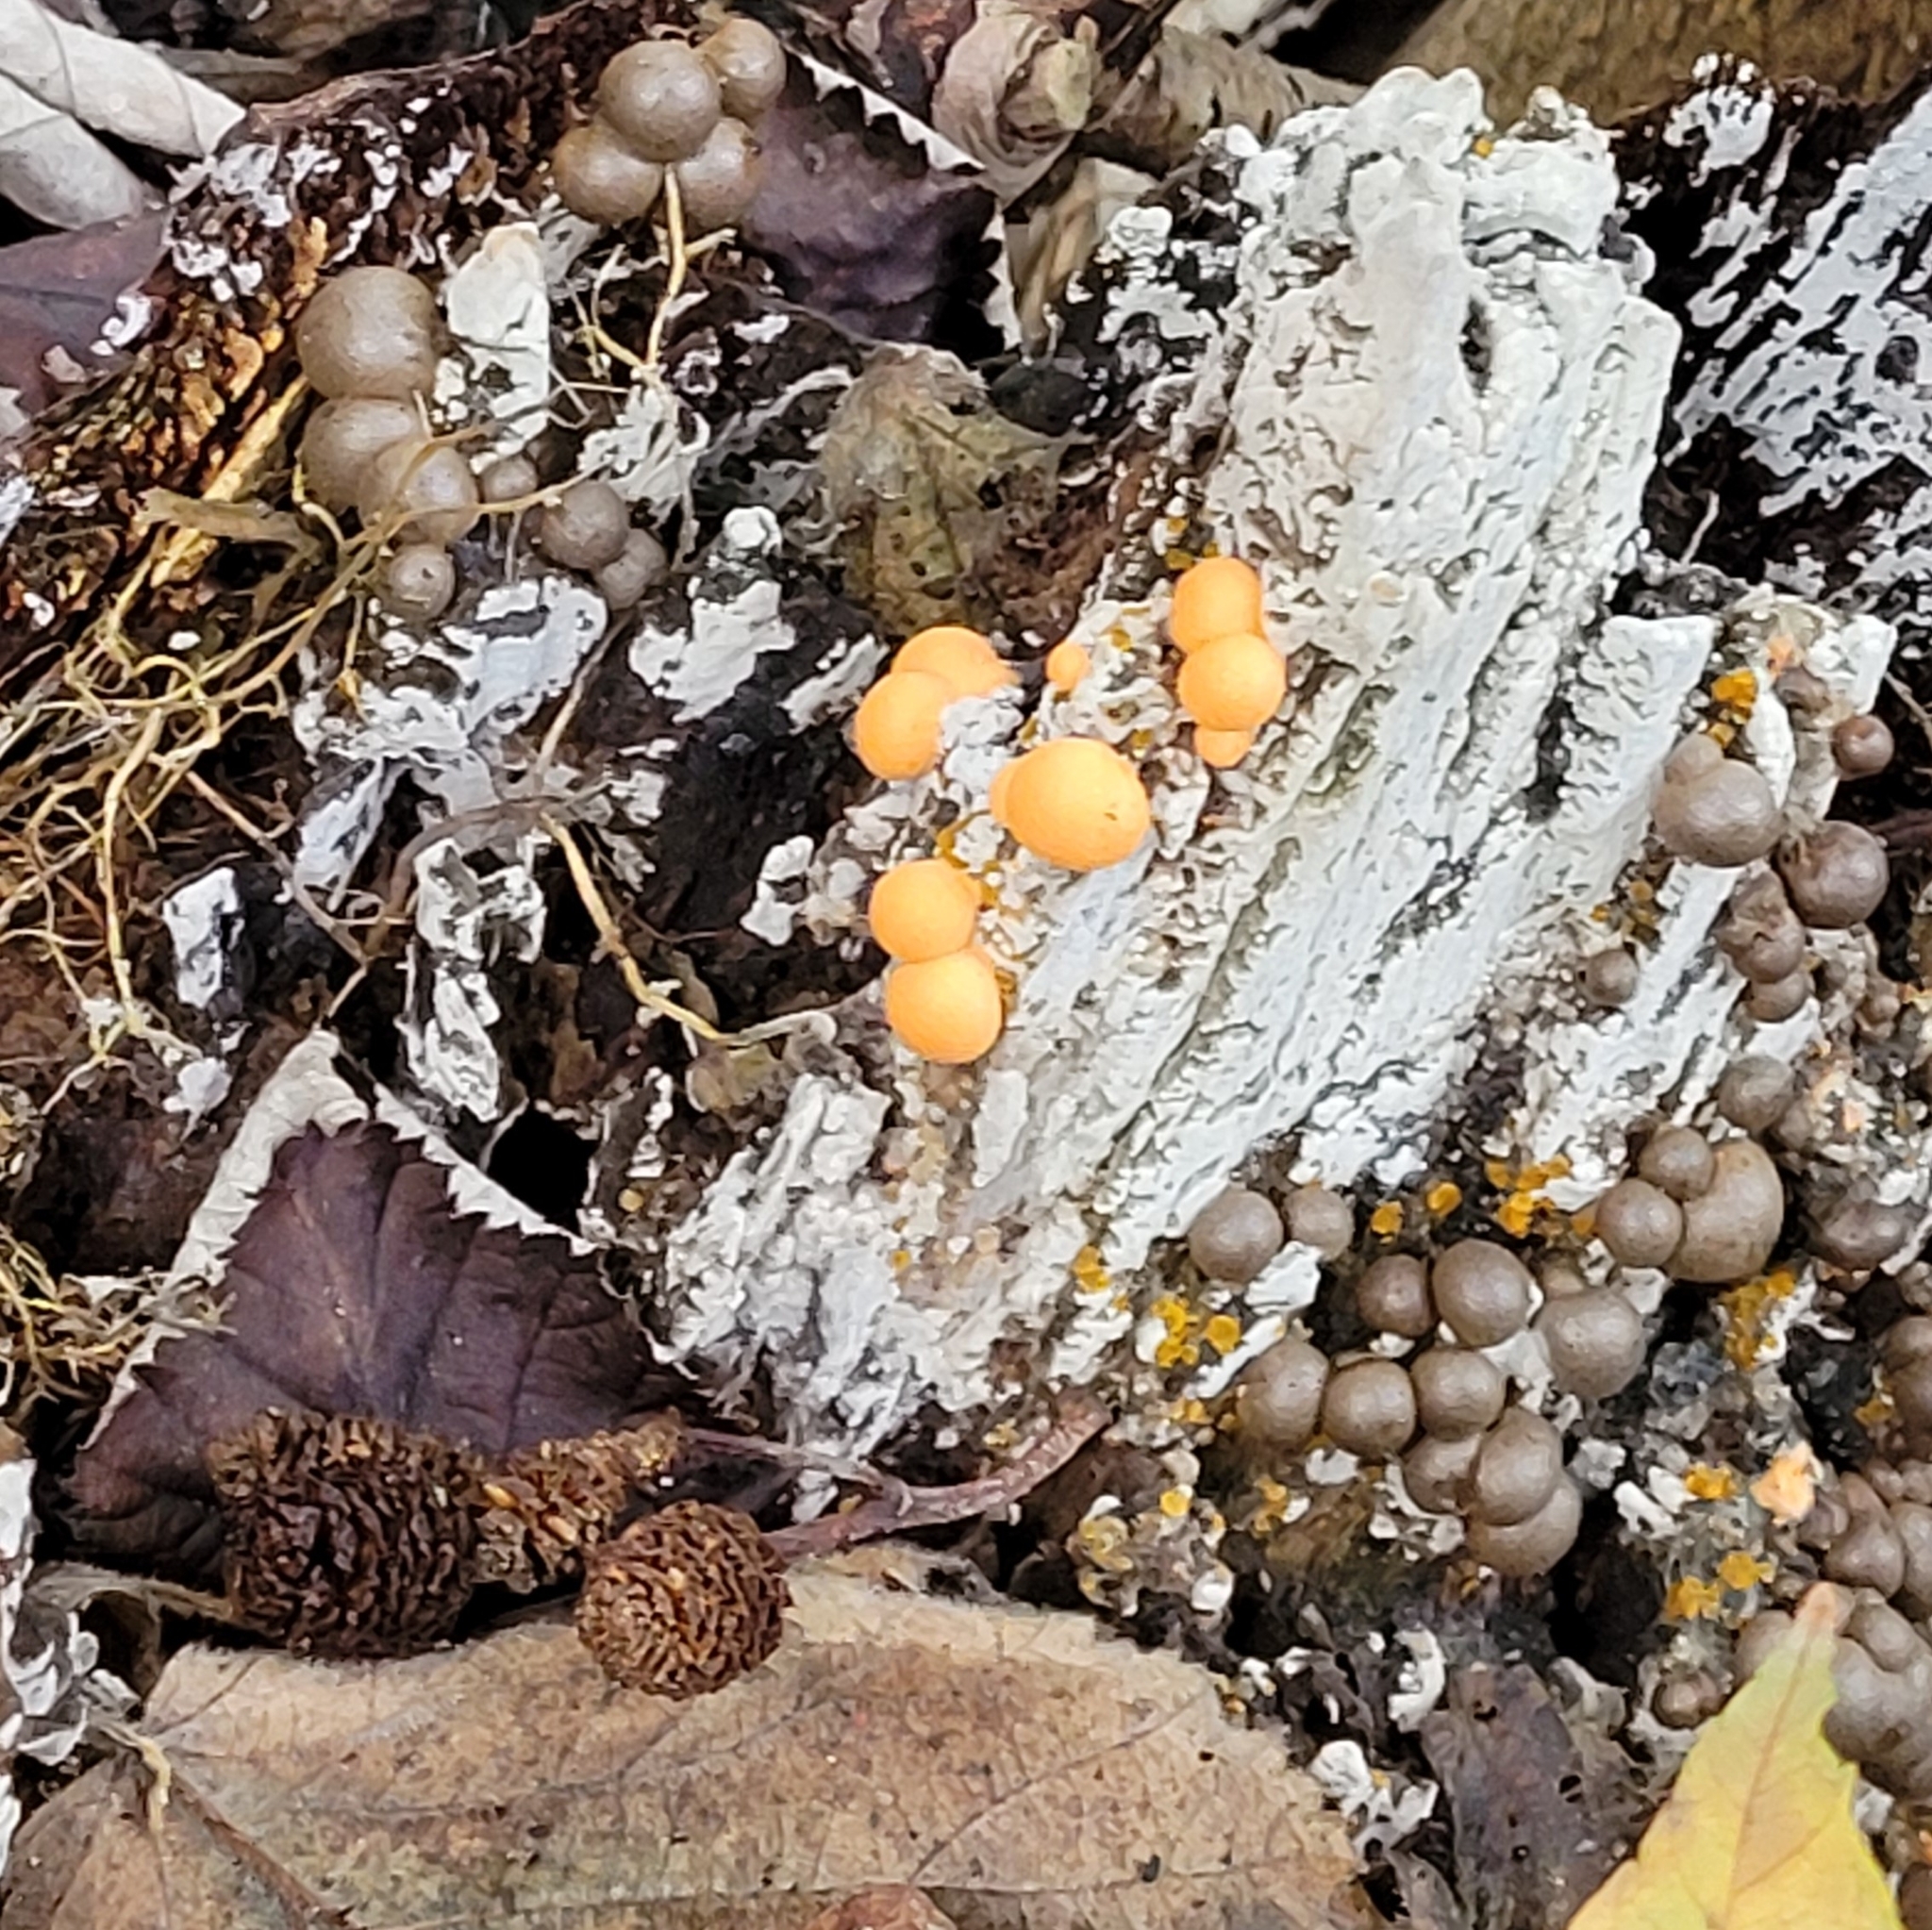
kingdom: Protozoa
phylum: Mycetozoa
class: Myxomycetes
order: Cribrariales
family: Tubiferaceae
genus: Lycogala
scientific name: Lycogala epidendrum
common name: Wolf's milk
